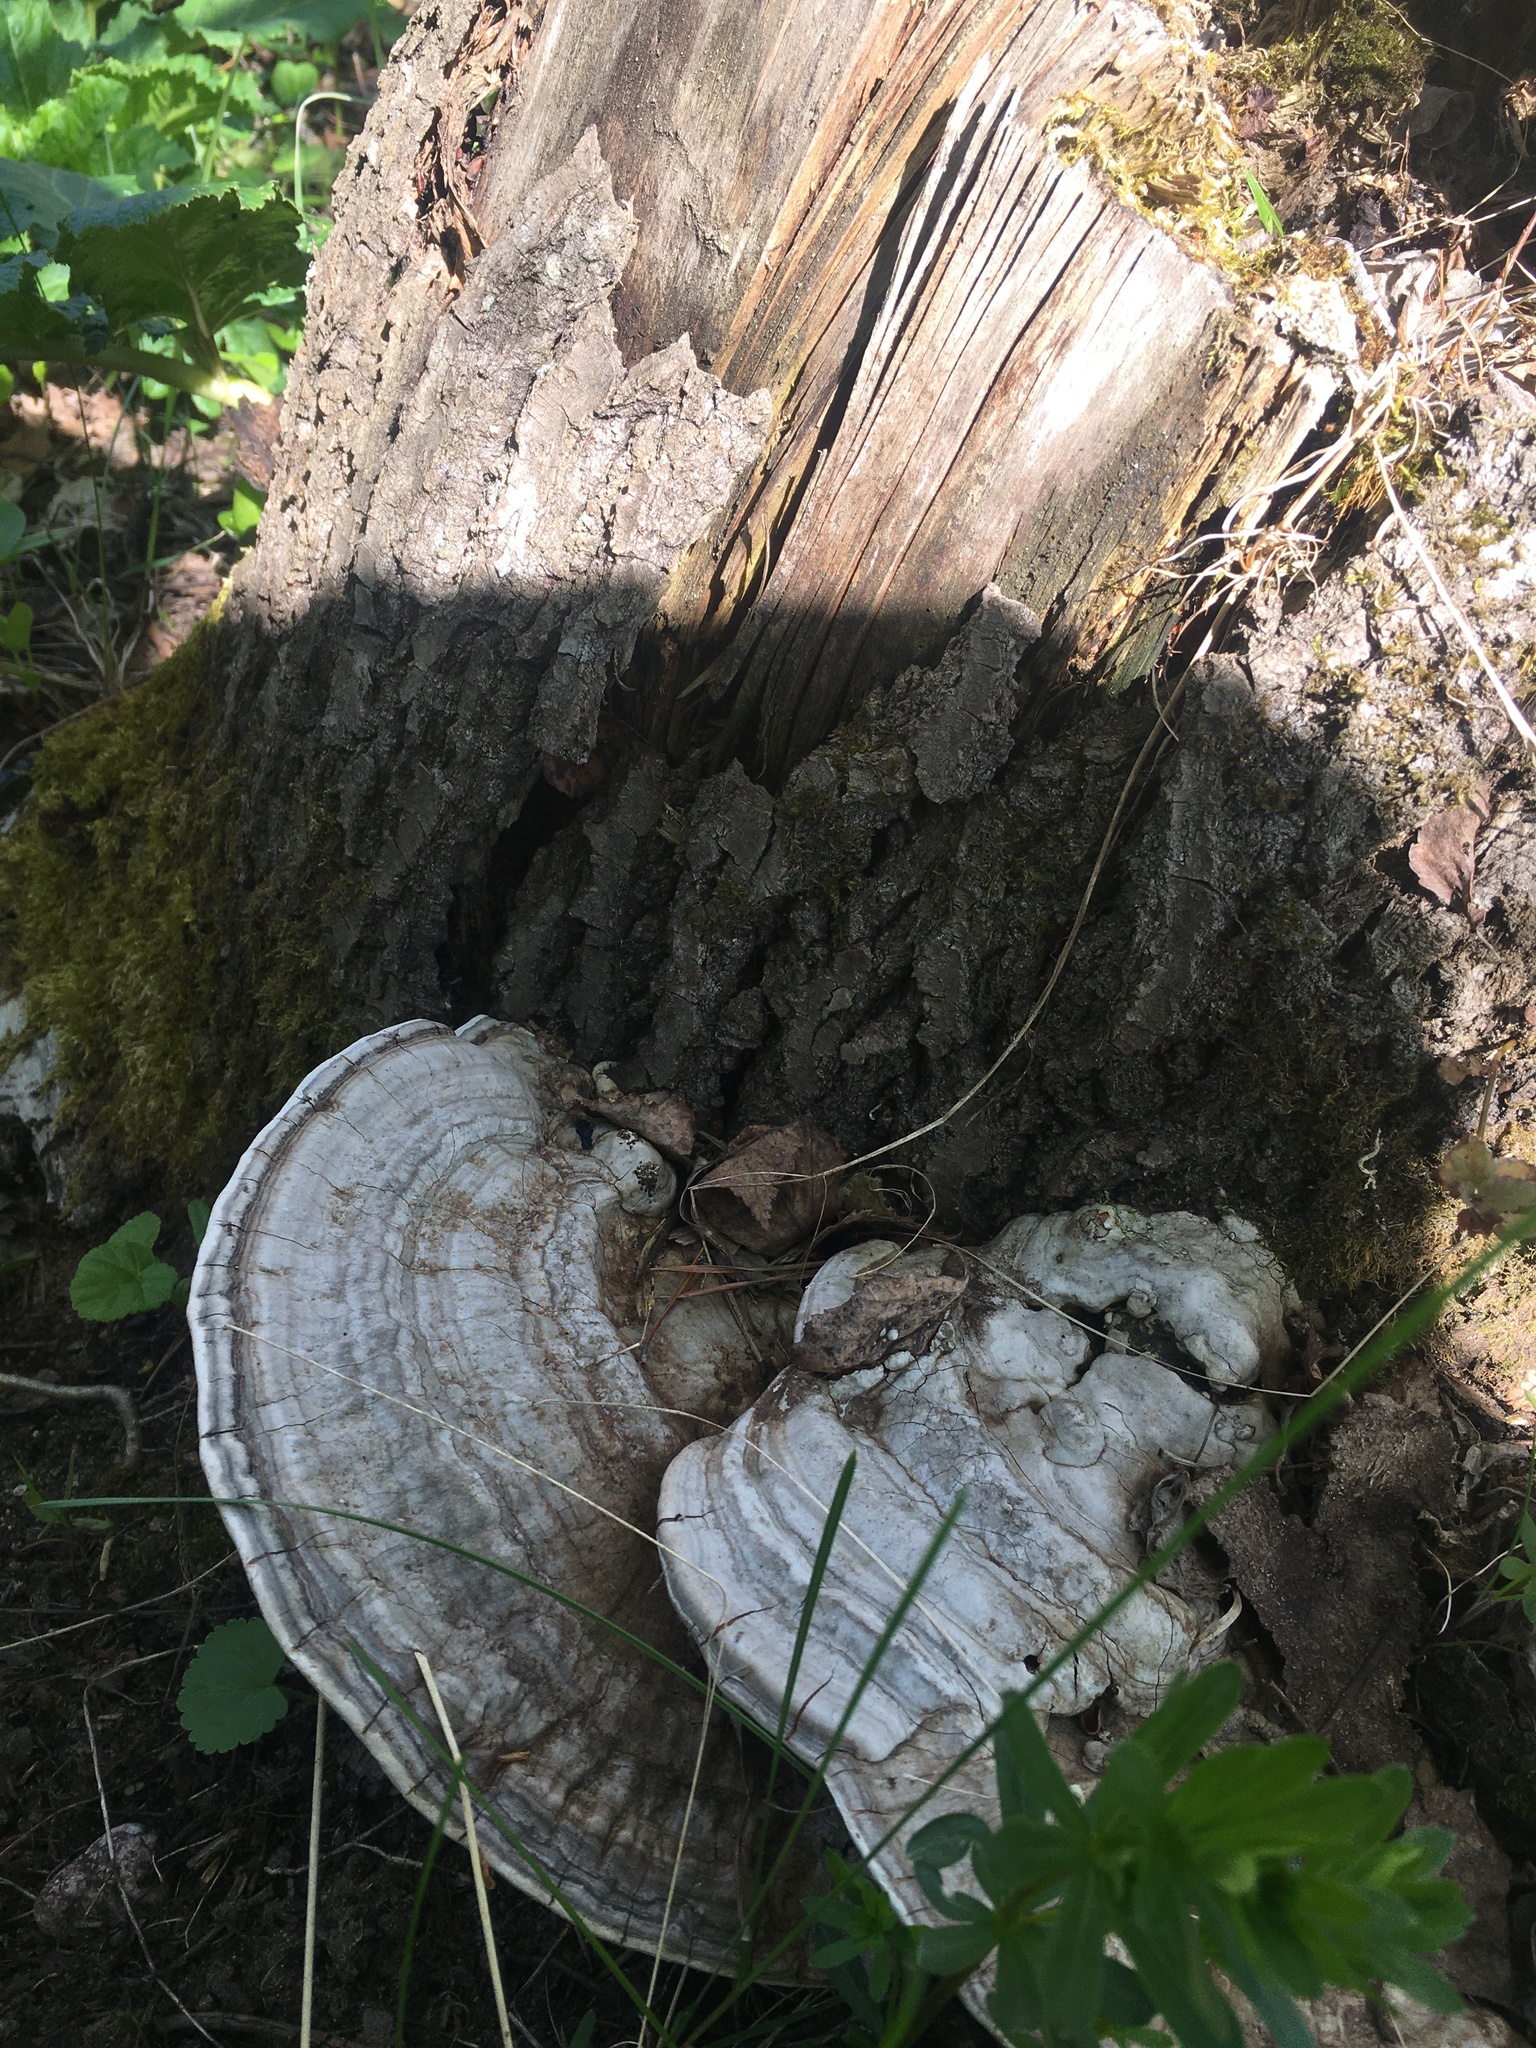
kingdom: Fungi
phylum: Basidiomycota
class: Agaricomycetes
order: Polyporales
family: Polyporaceae
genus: Ganoderma
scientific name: Ganoderma applanatum
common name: Artist's bracket
